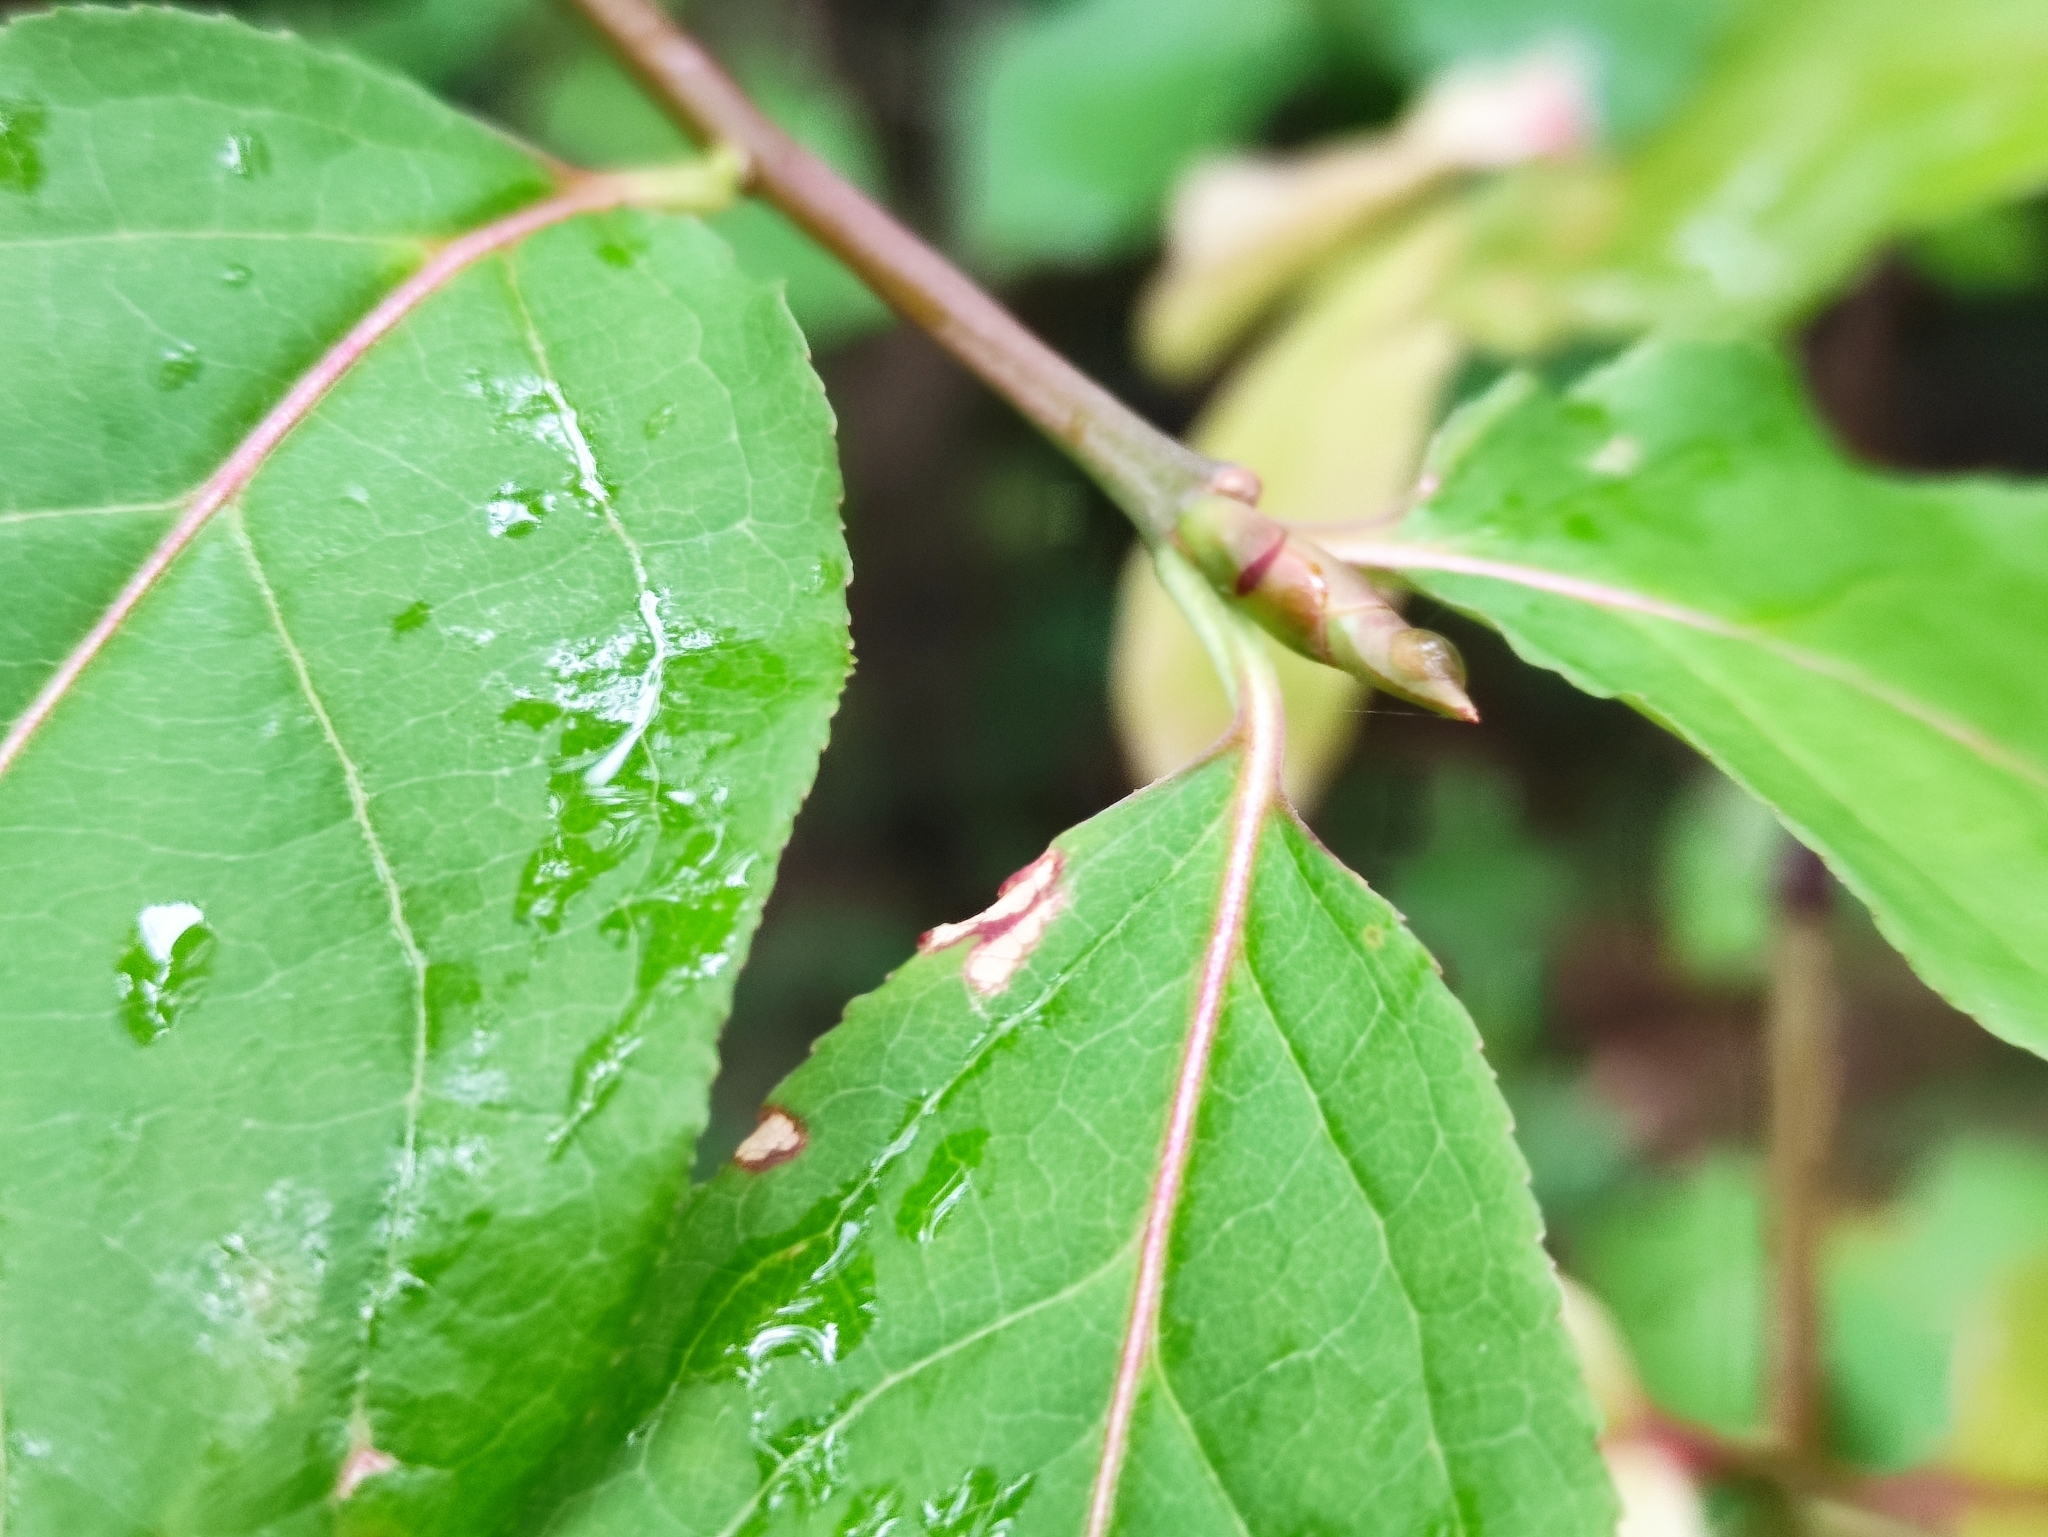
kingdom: Plantae
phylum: Tracheophyta
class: Magnoliopsida
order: Celastrales
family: Celastraceae
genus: Euonymus
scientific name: Euonymus latifolius
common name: Large-leaved spindle
